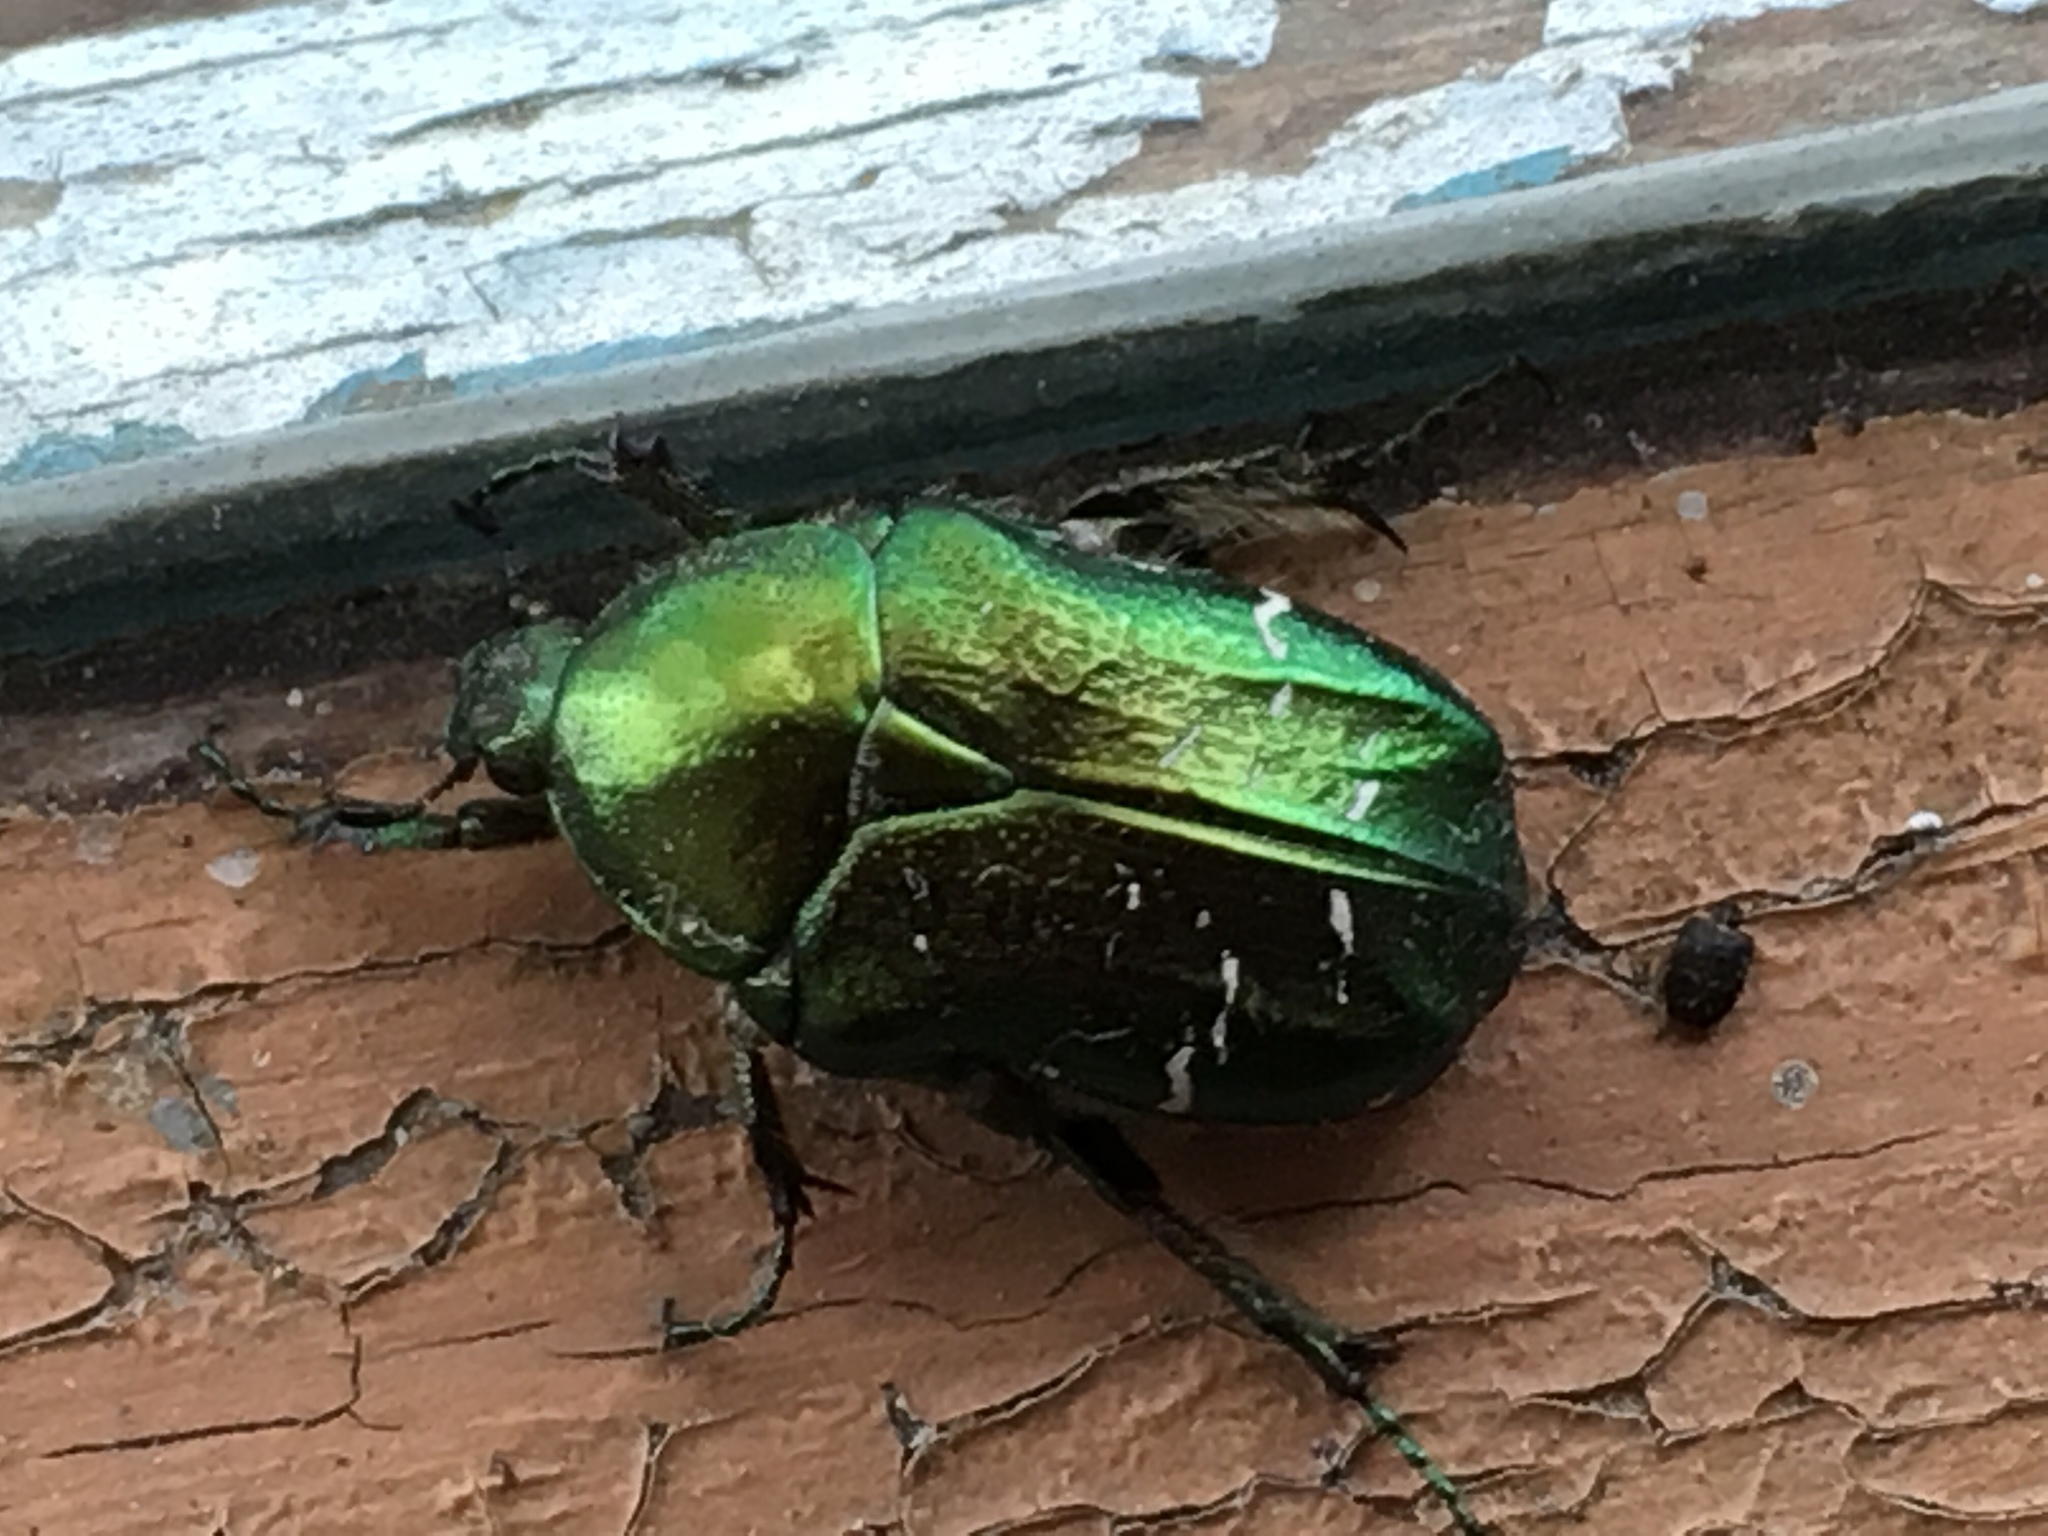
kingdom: Animalia
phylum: Arthropoda
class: Insecta
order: Coleoptera
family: Scarabaeidae
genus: Cetonia
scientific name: Cetonia aurata
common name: Rose chafer
